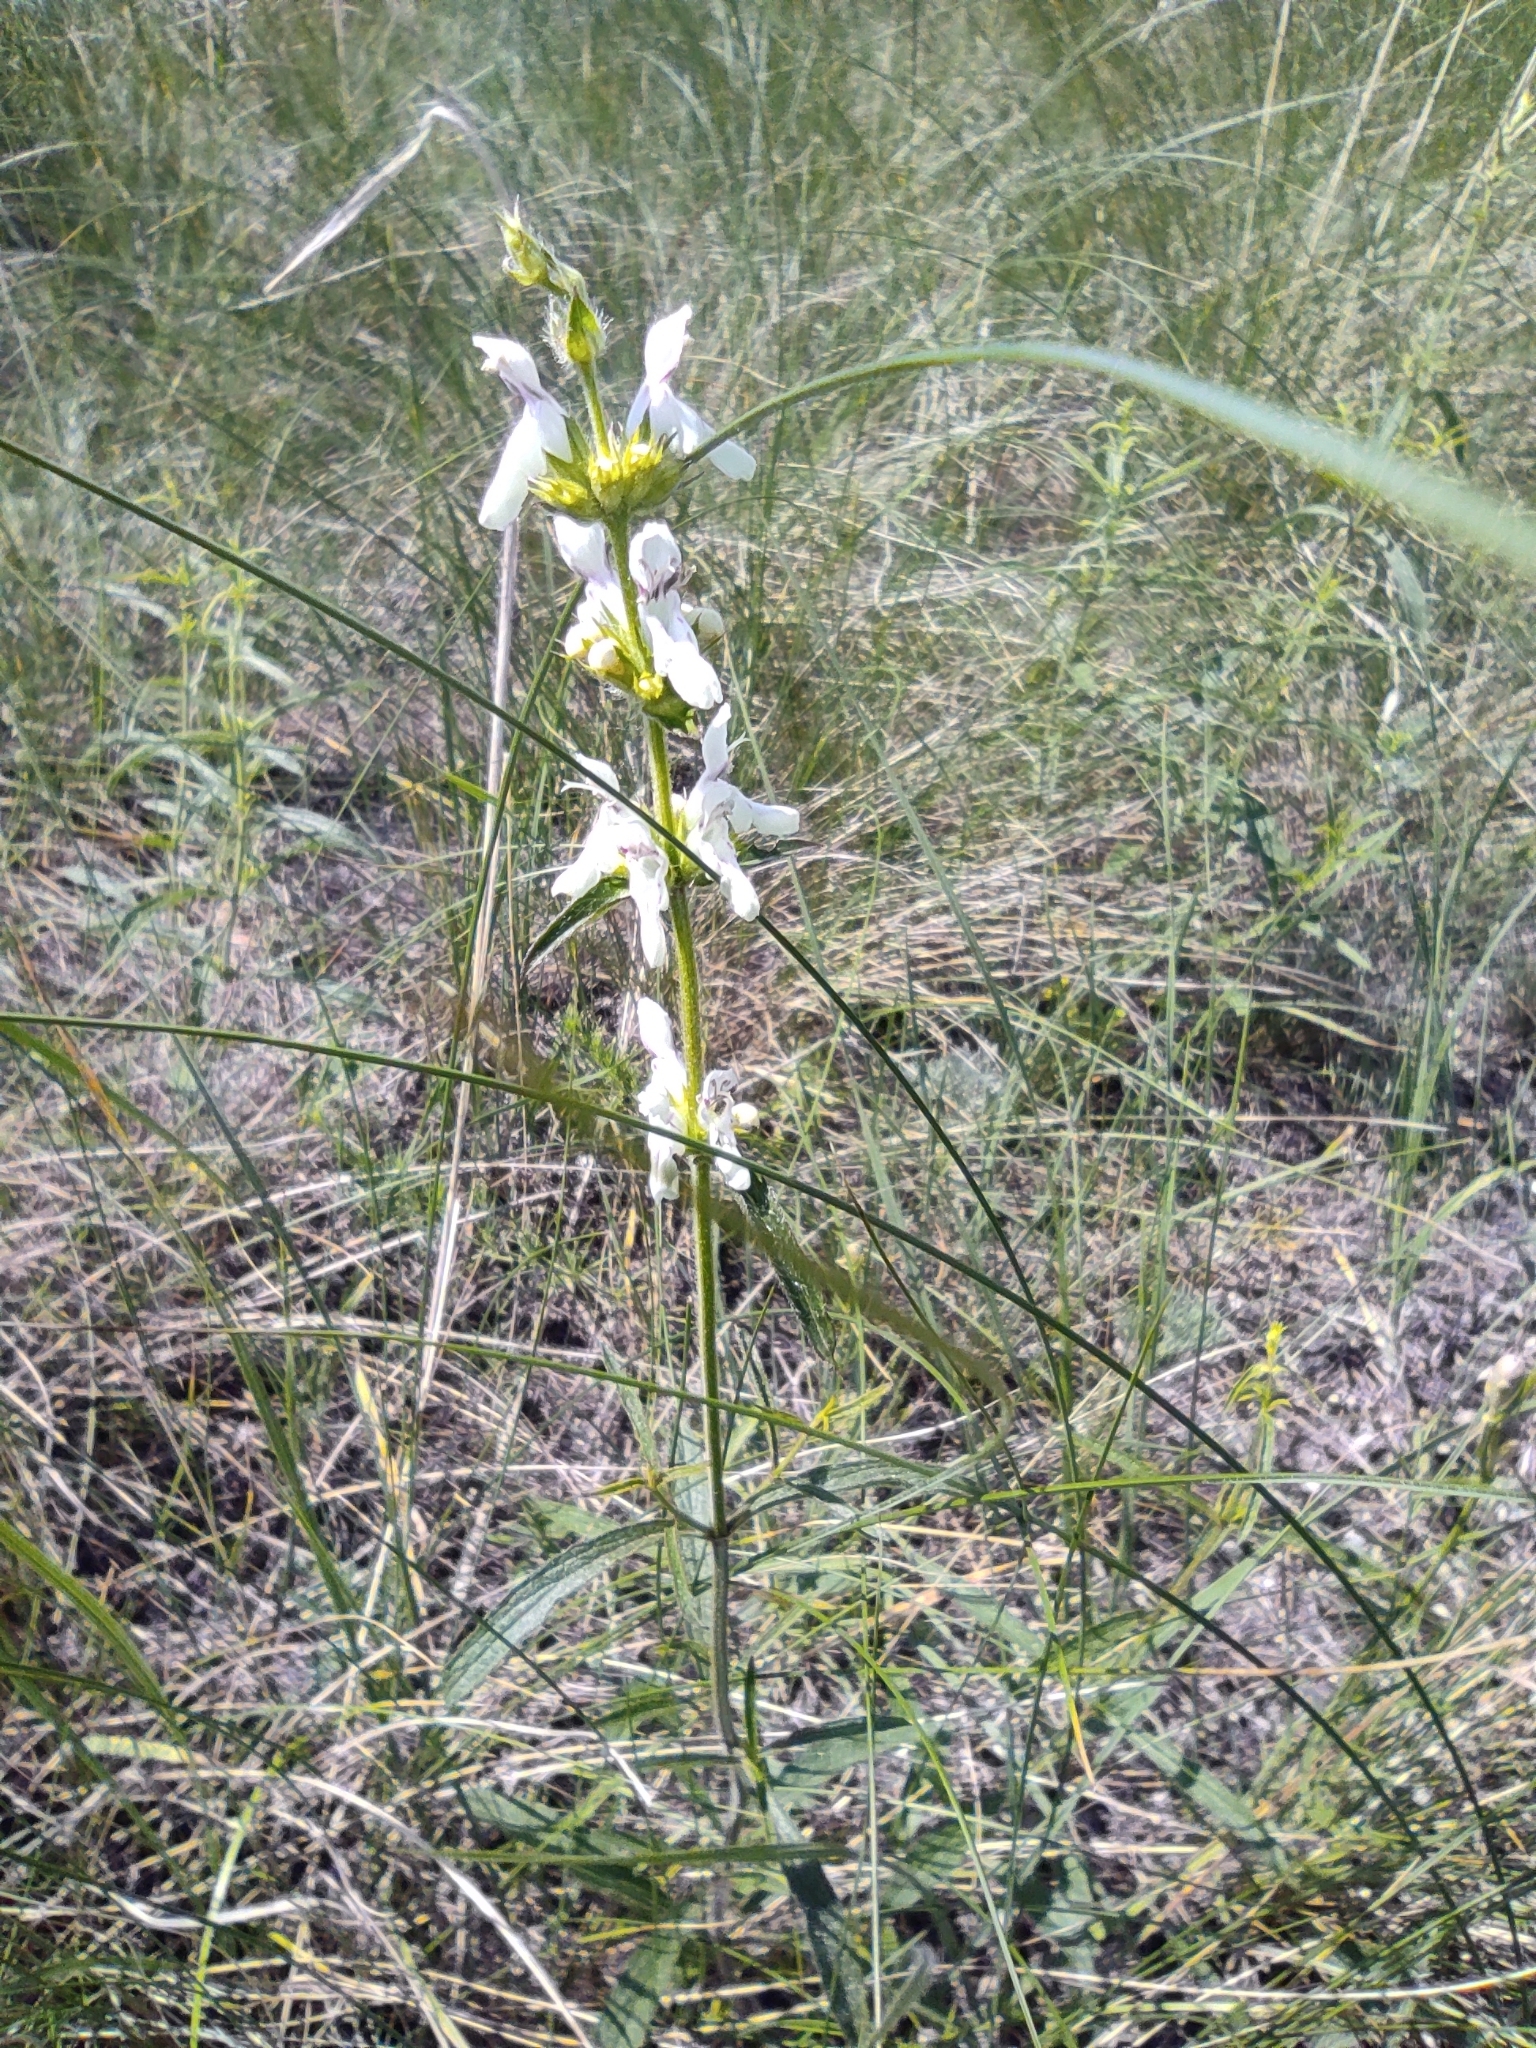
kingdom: Plantae
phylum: Tracheophyta
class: Magnoliopsida
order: Lamiales
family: Lamiaceae
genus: Stachys
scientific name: Stachys recta
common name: Perennial yellow-woundwort
